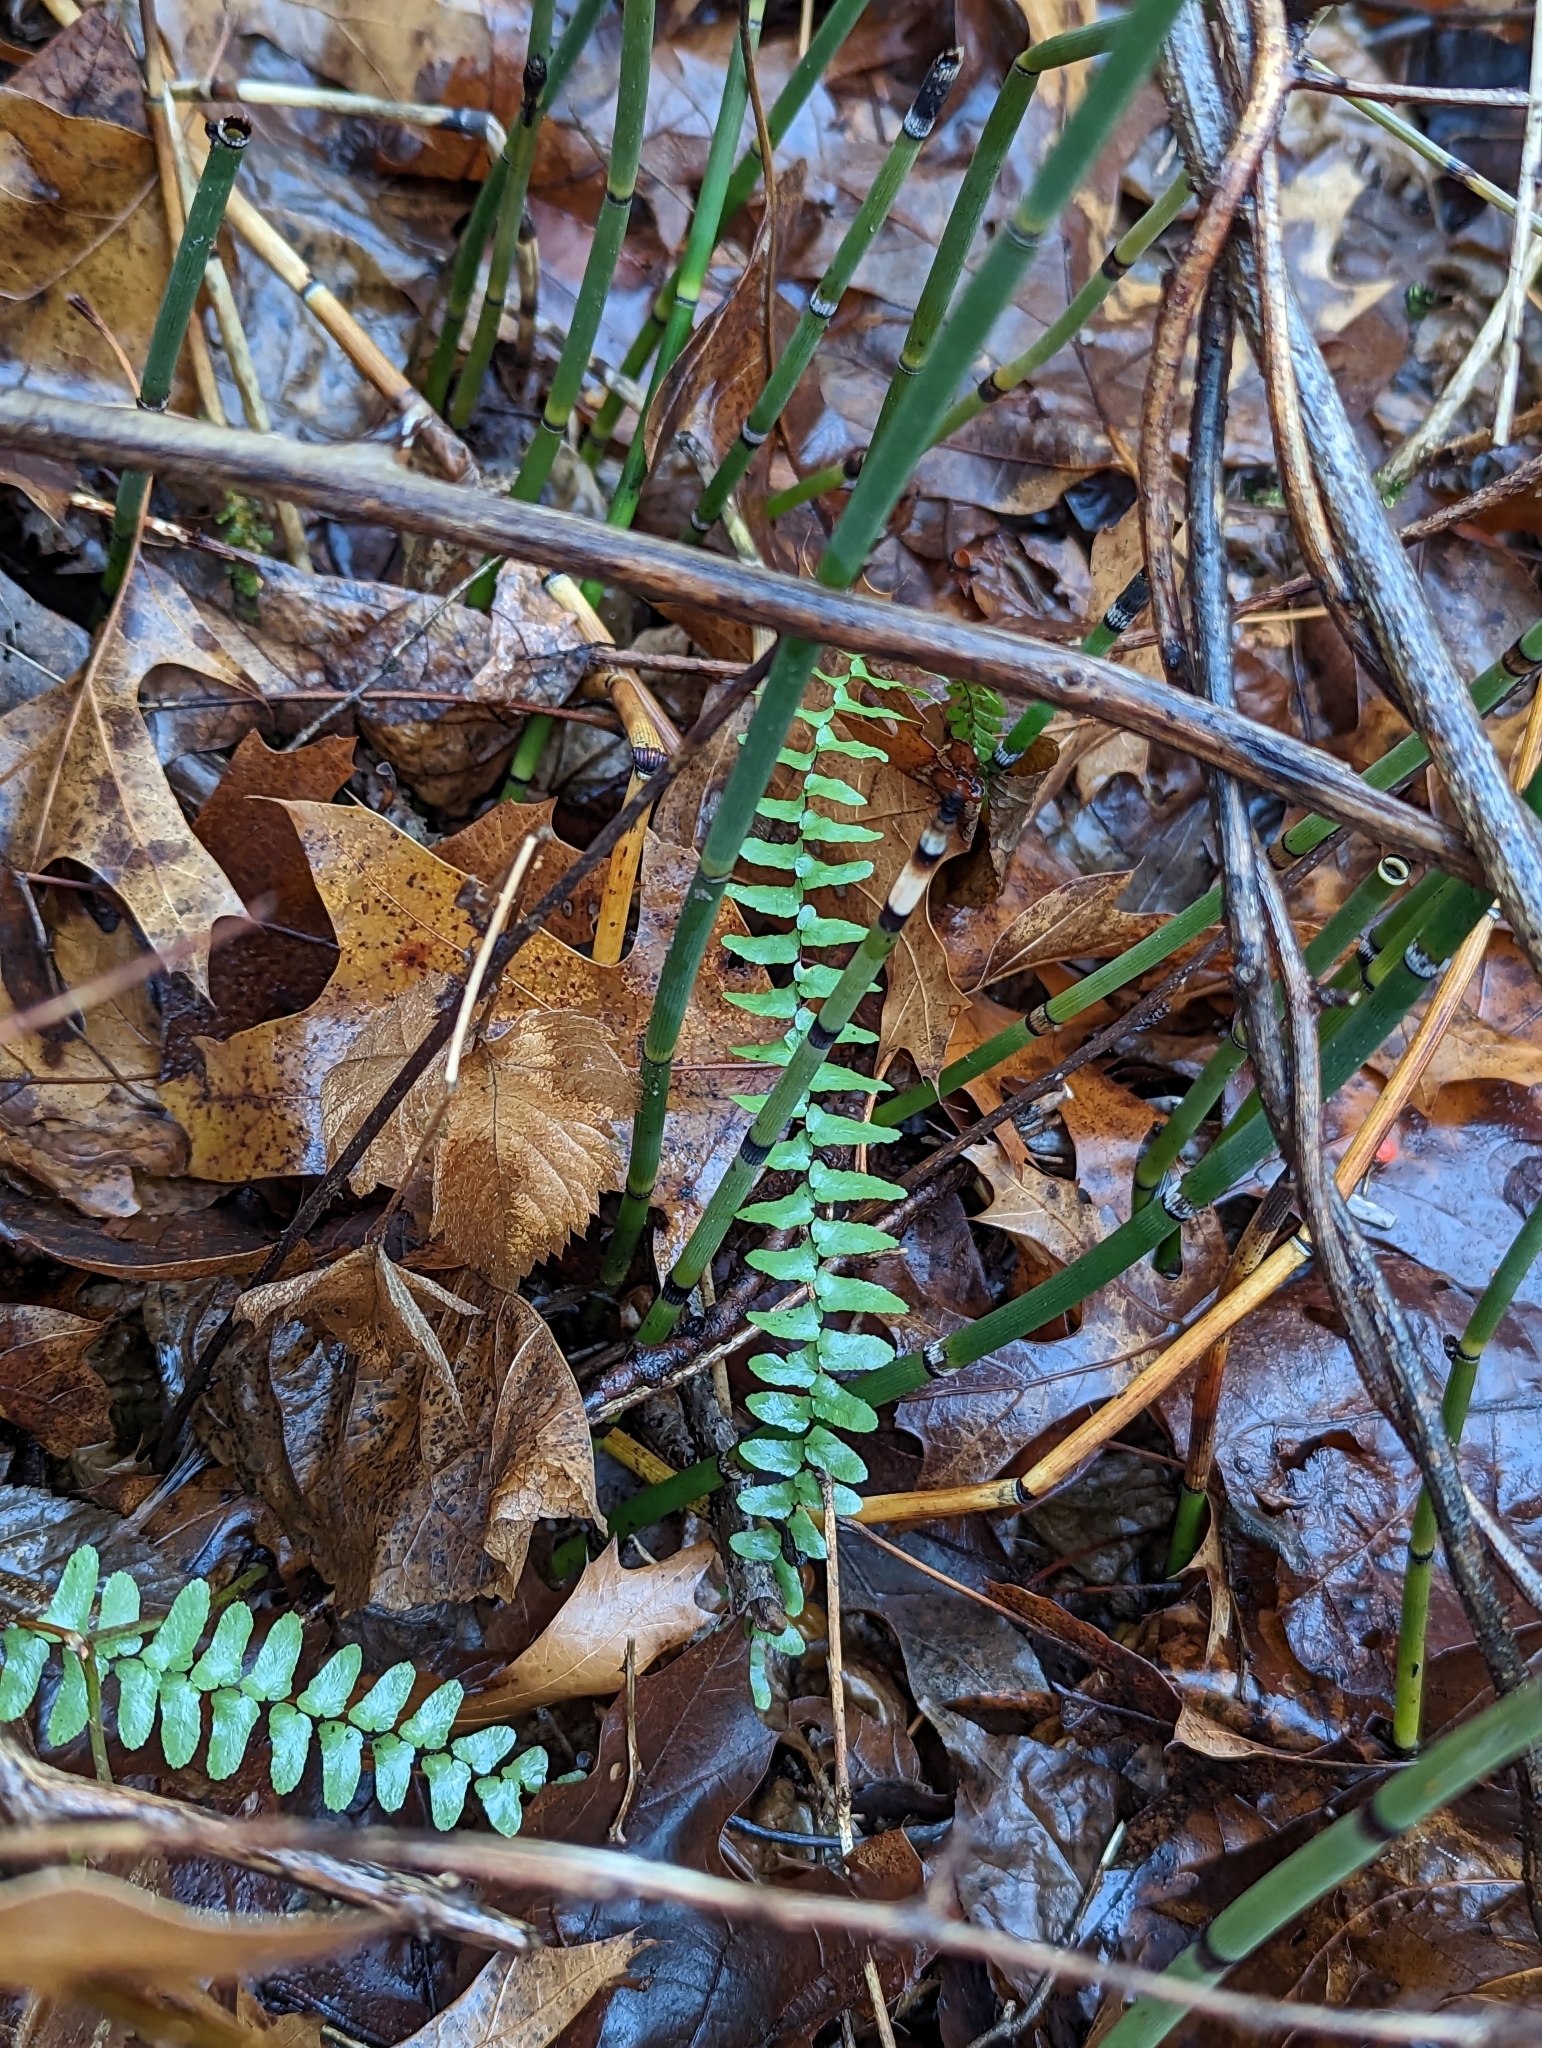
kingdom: Plantae
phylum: Tracheophyta
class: Polypodiopsida
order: Polypodiales
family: Aspleniaceae
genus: Asplenium
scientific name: Asplenium platyneuron
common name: Ebony spleenwort
